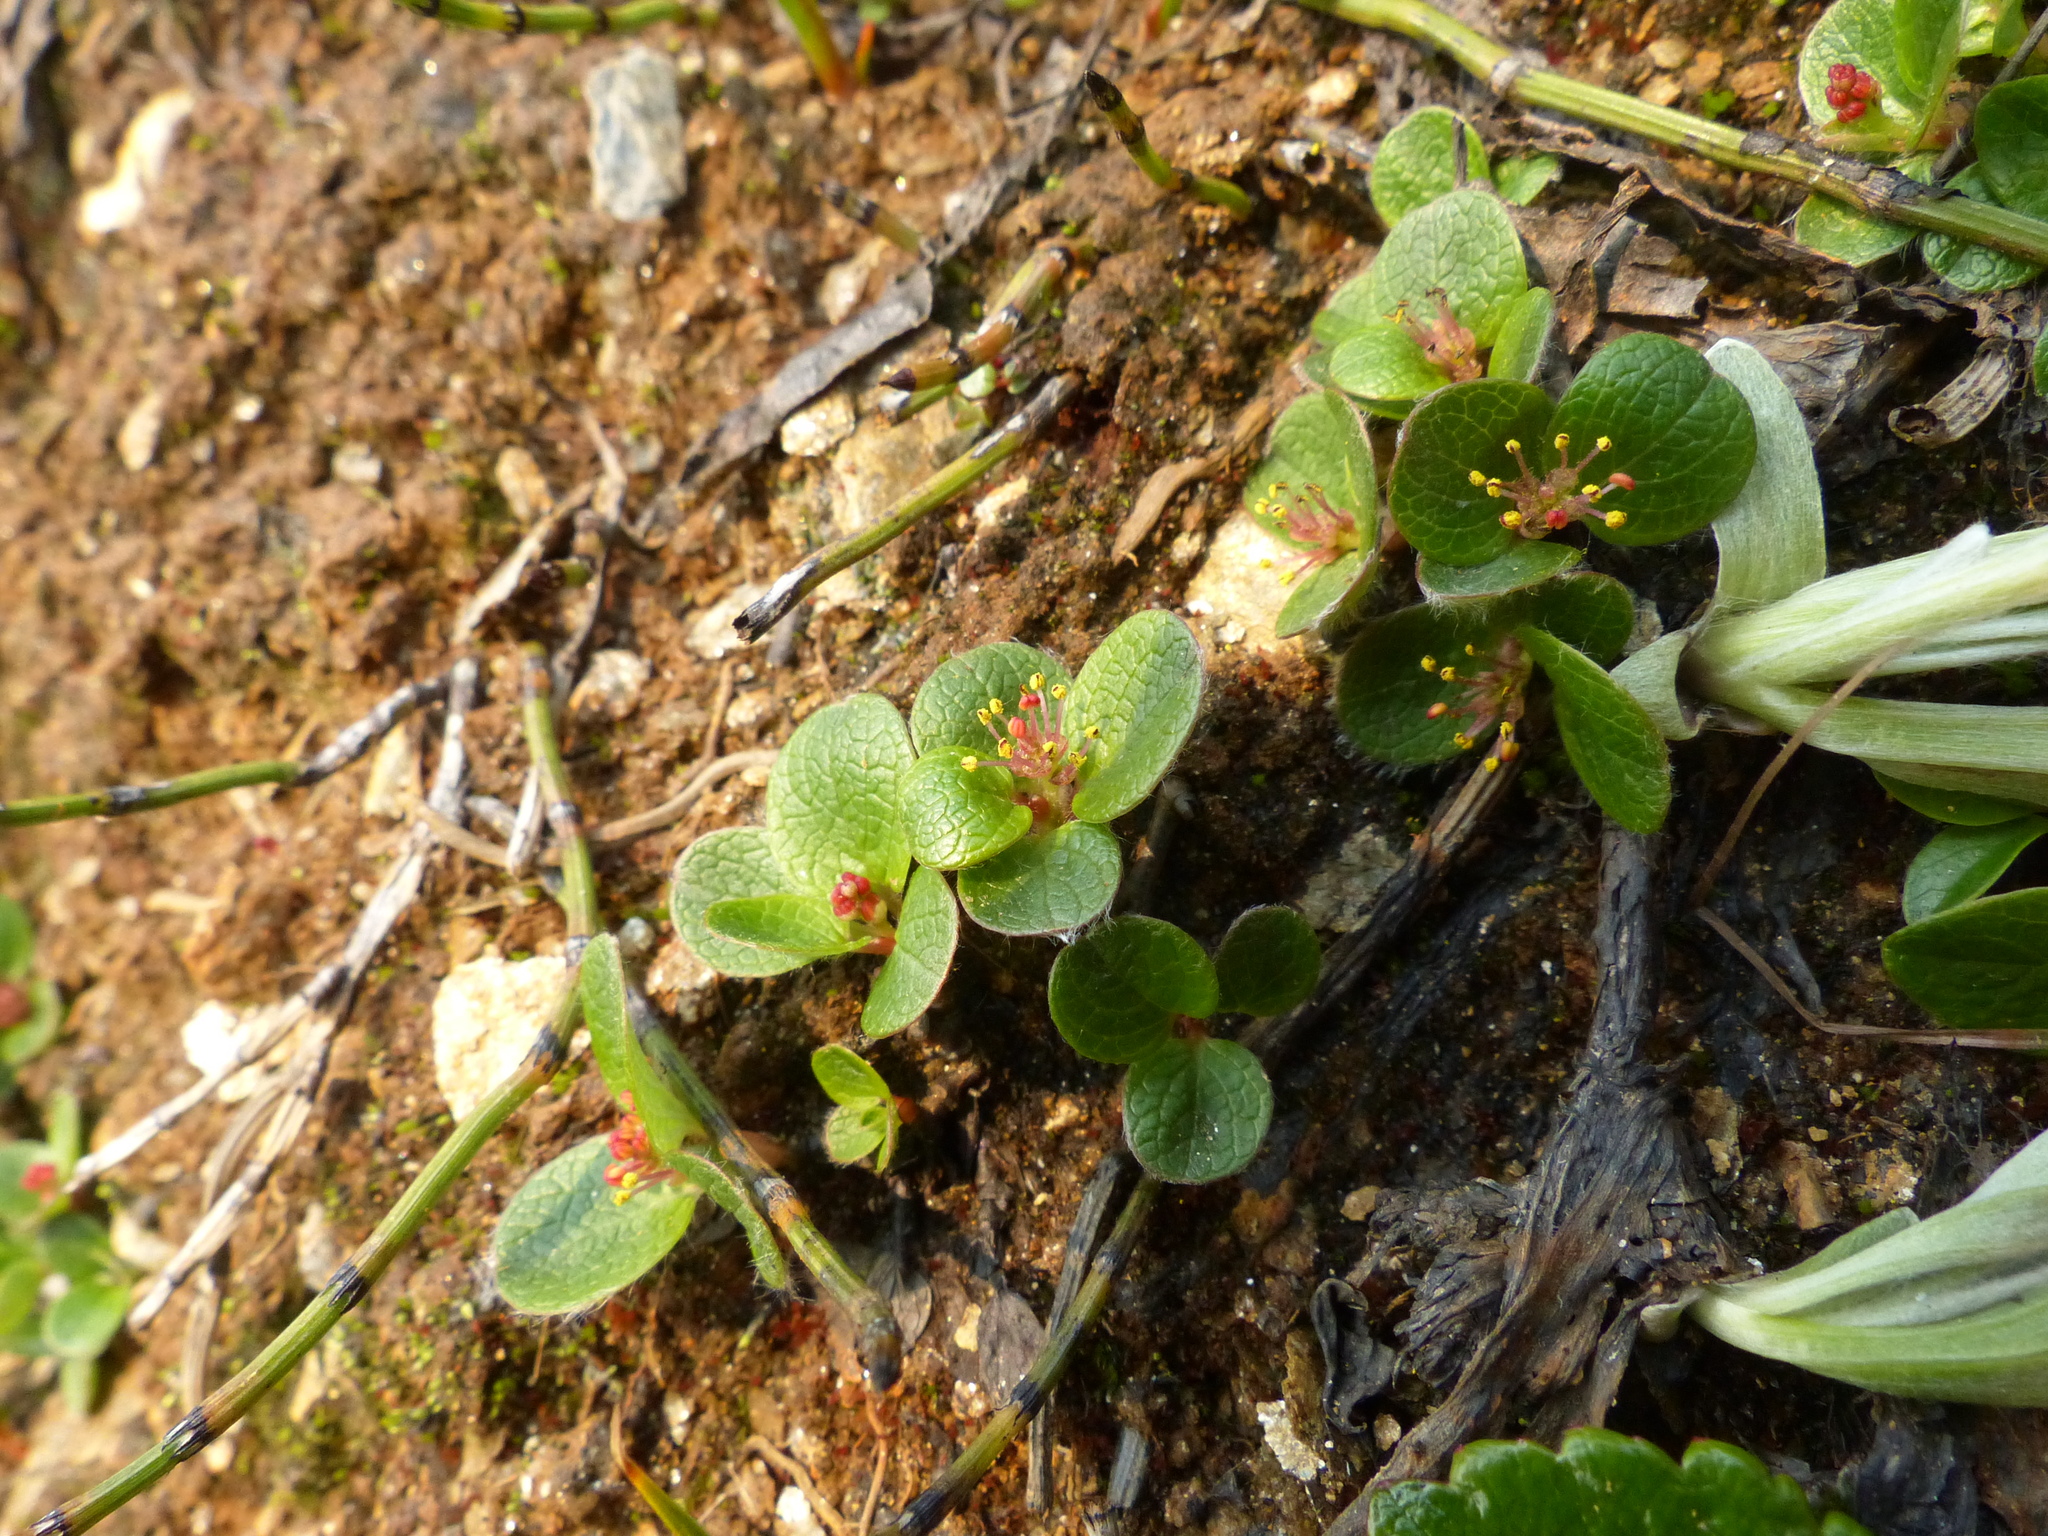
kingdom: Plantae
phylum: Tracheophyta
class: Magnoliopsida
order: Malpighiales
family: Salicaceae
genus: Salix
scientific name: Salix nivalis
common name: Dwarf snow willow
